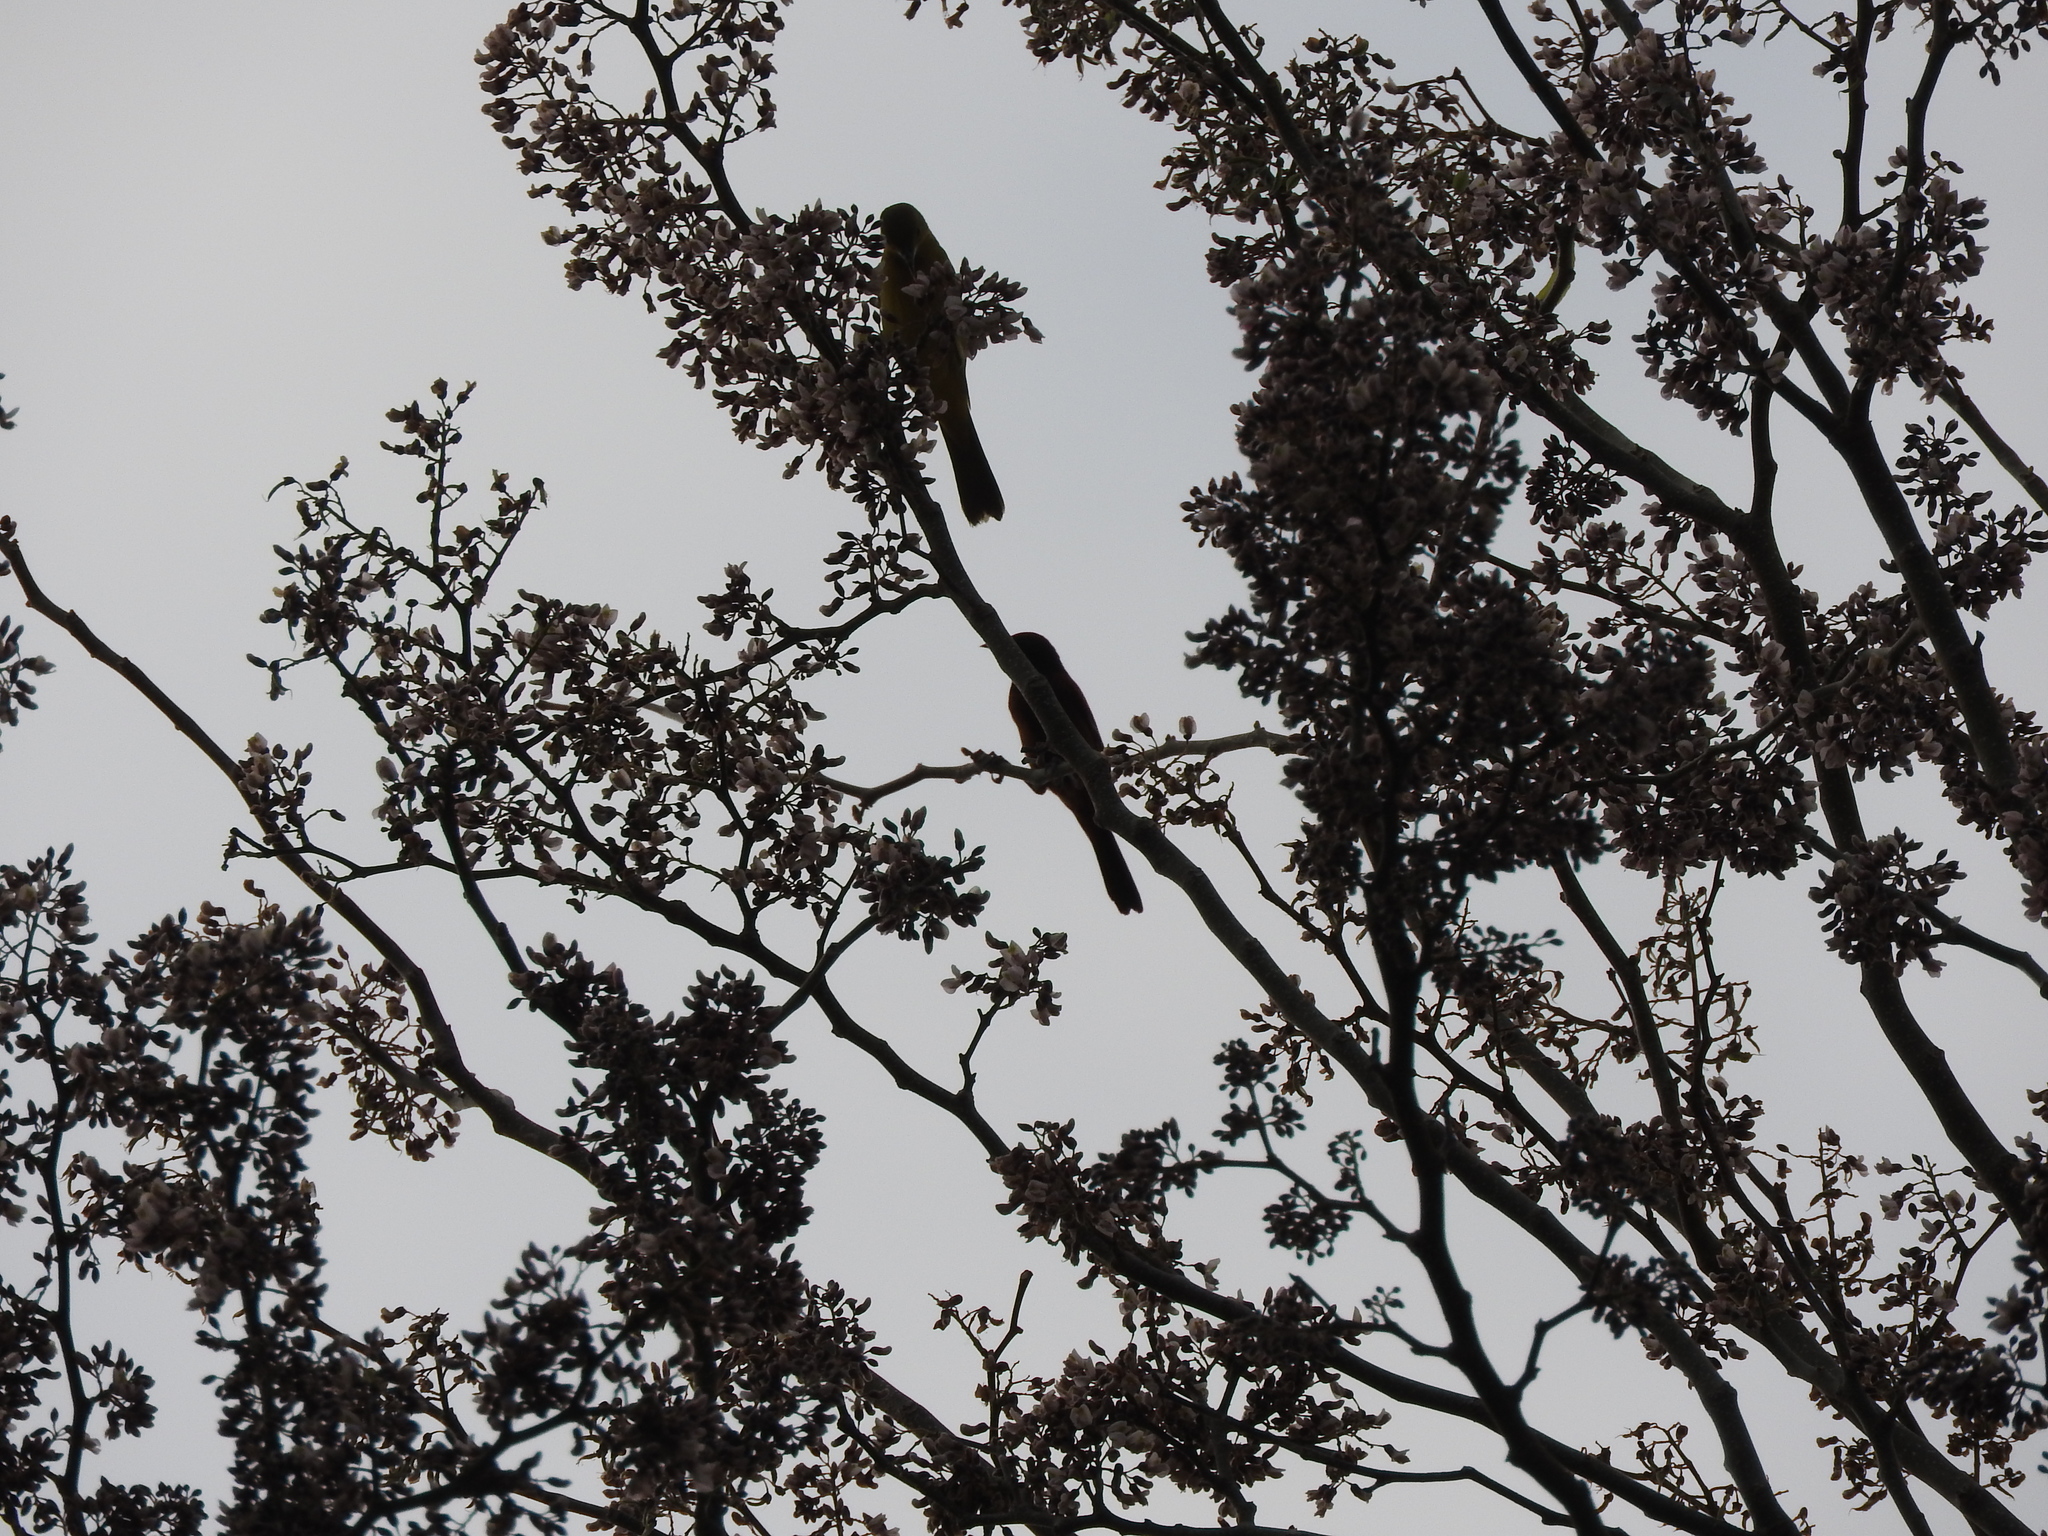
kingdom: Animalia
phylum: Chordata
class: Aves
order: Passeriformes
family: Icteridae
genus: Icterus
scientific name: Icterus spurius
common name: Orchard oriole
